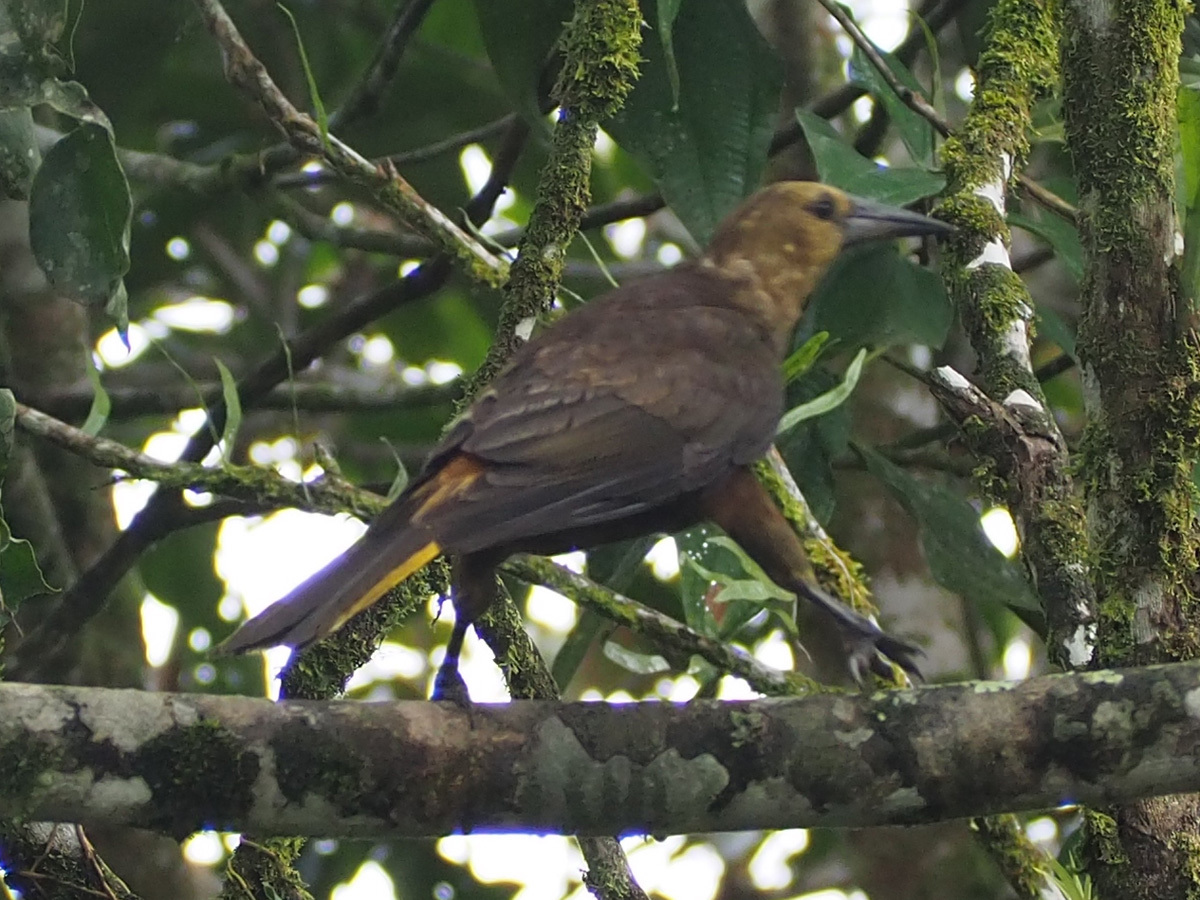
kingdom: Animalia
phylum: Chordata
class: Aves
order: Passeriformes
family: Icteridae
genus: Psarocolius
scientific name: Psarocolius angustifrons
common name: Russet-backed oropendola
